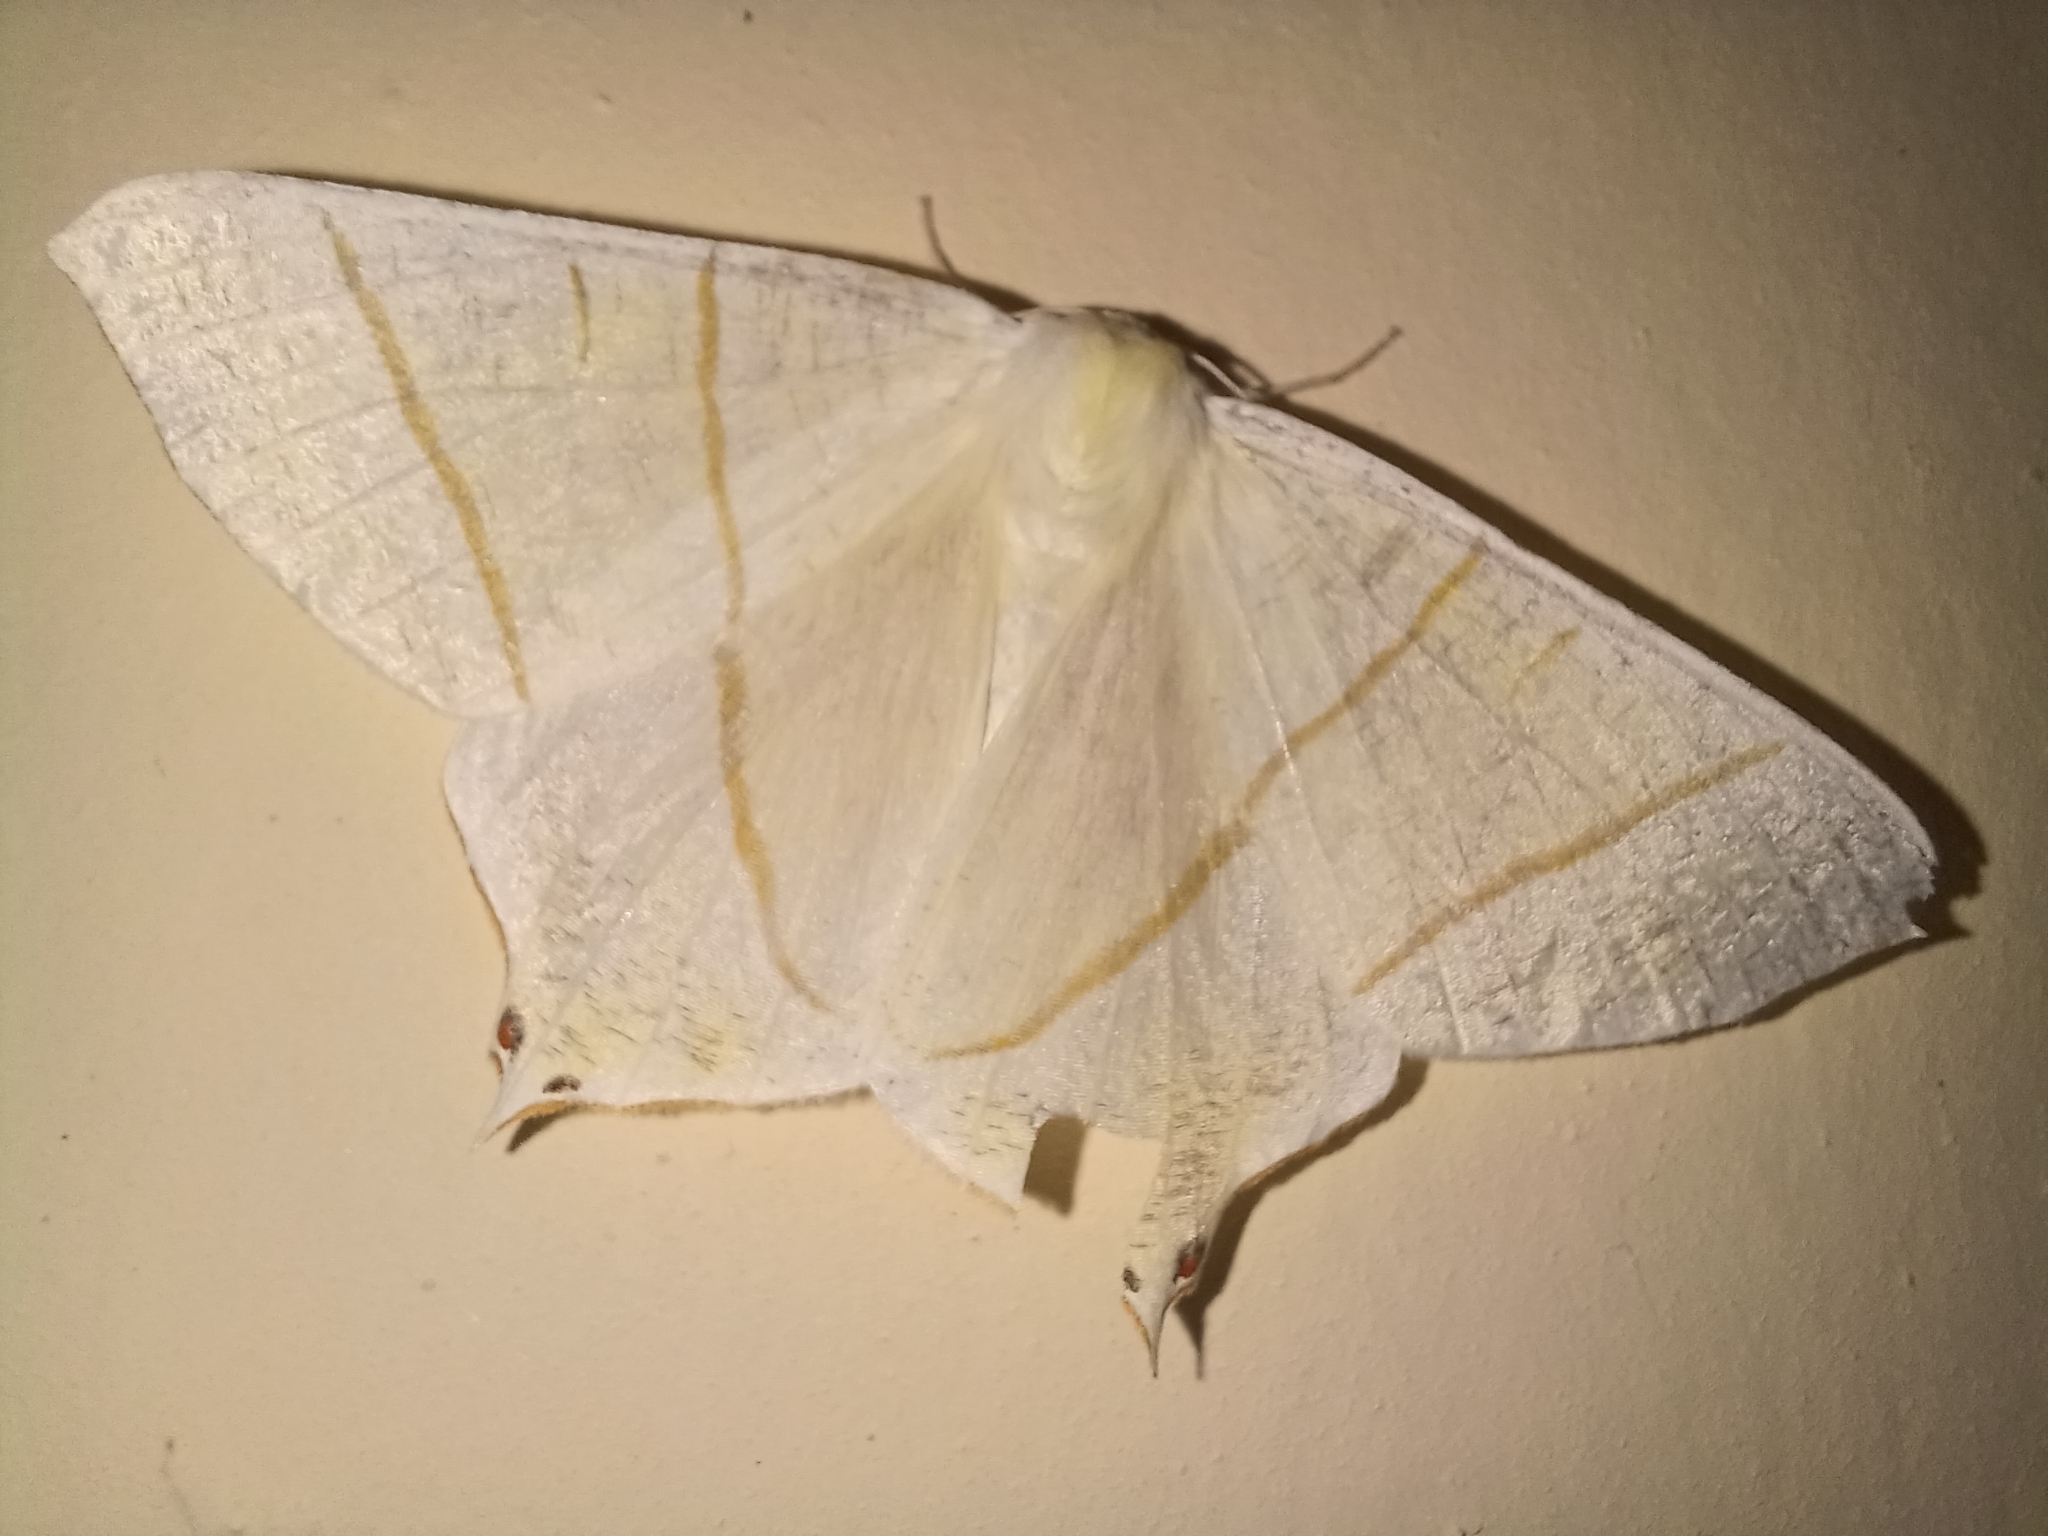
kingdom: Animalia
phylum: Arthropoda
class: Insecta
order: Lepidoptera
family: Geometridae
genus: Ourapteryx
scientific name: Ourapteryx sambucaria
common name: Swallow-tailed moth
